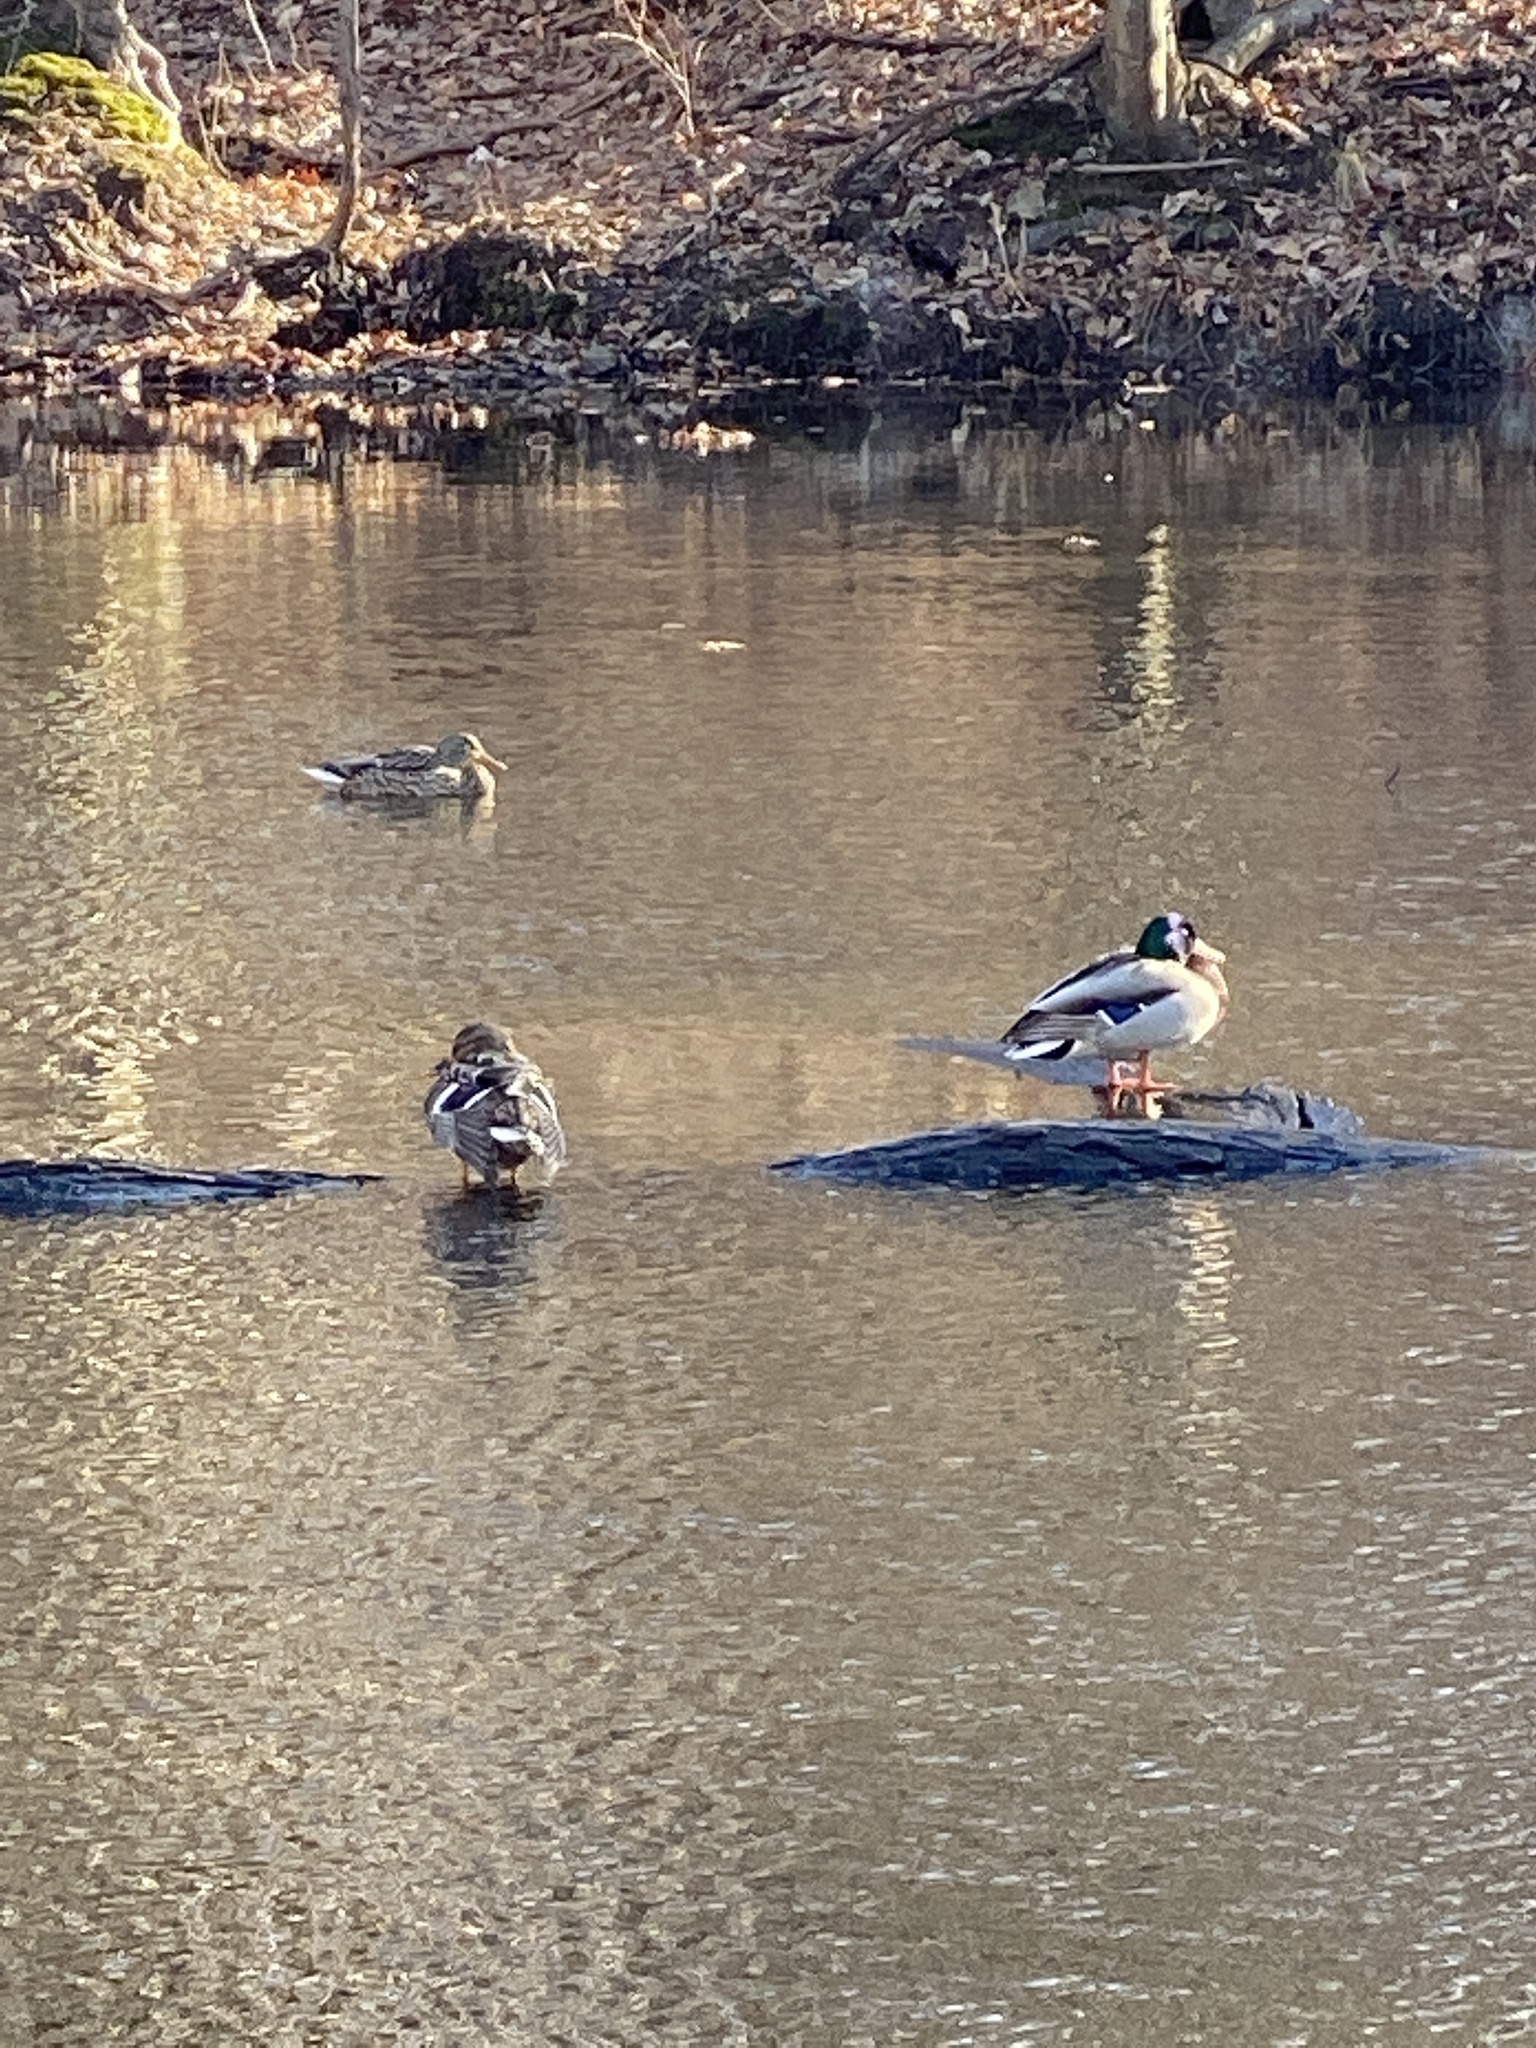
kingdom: Animalia
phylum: Chordata
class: Aves
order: Anseriformes
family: Anatidae
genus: Anas
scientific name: Anas platyrhynchos
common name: Mallard
